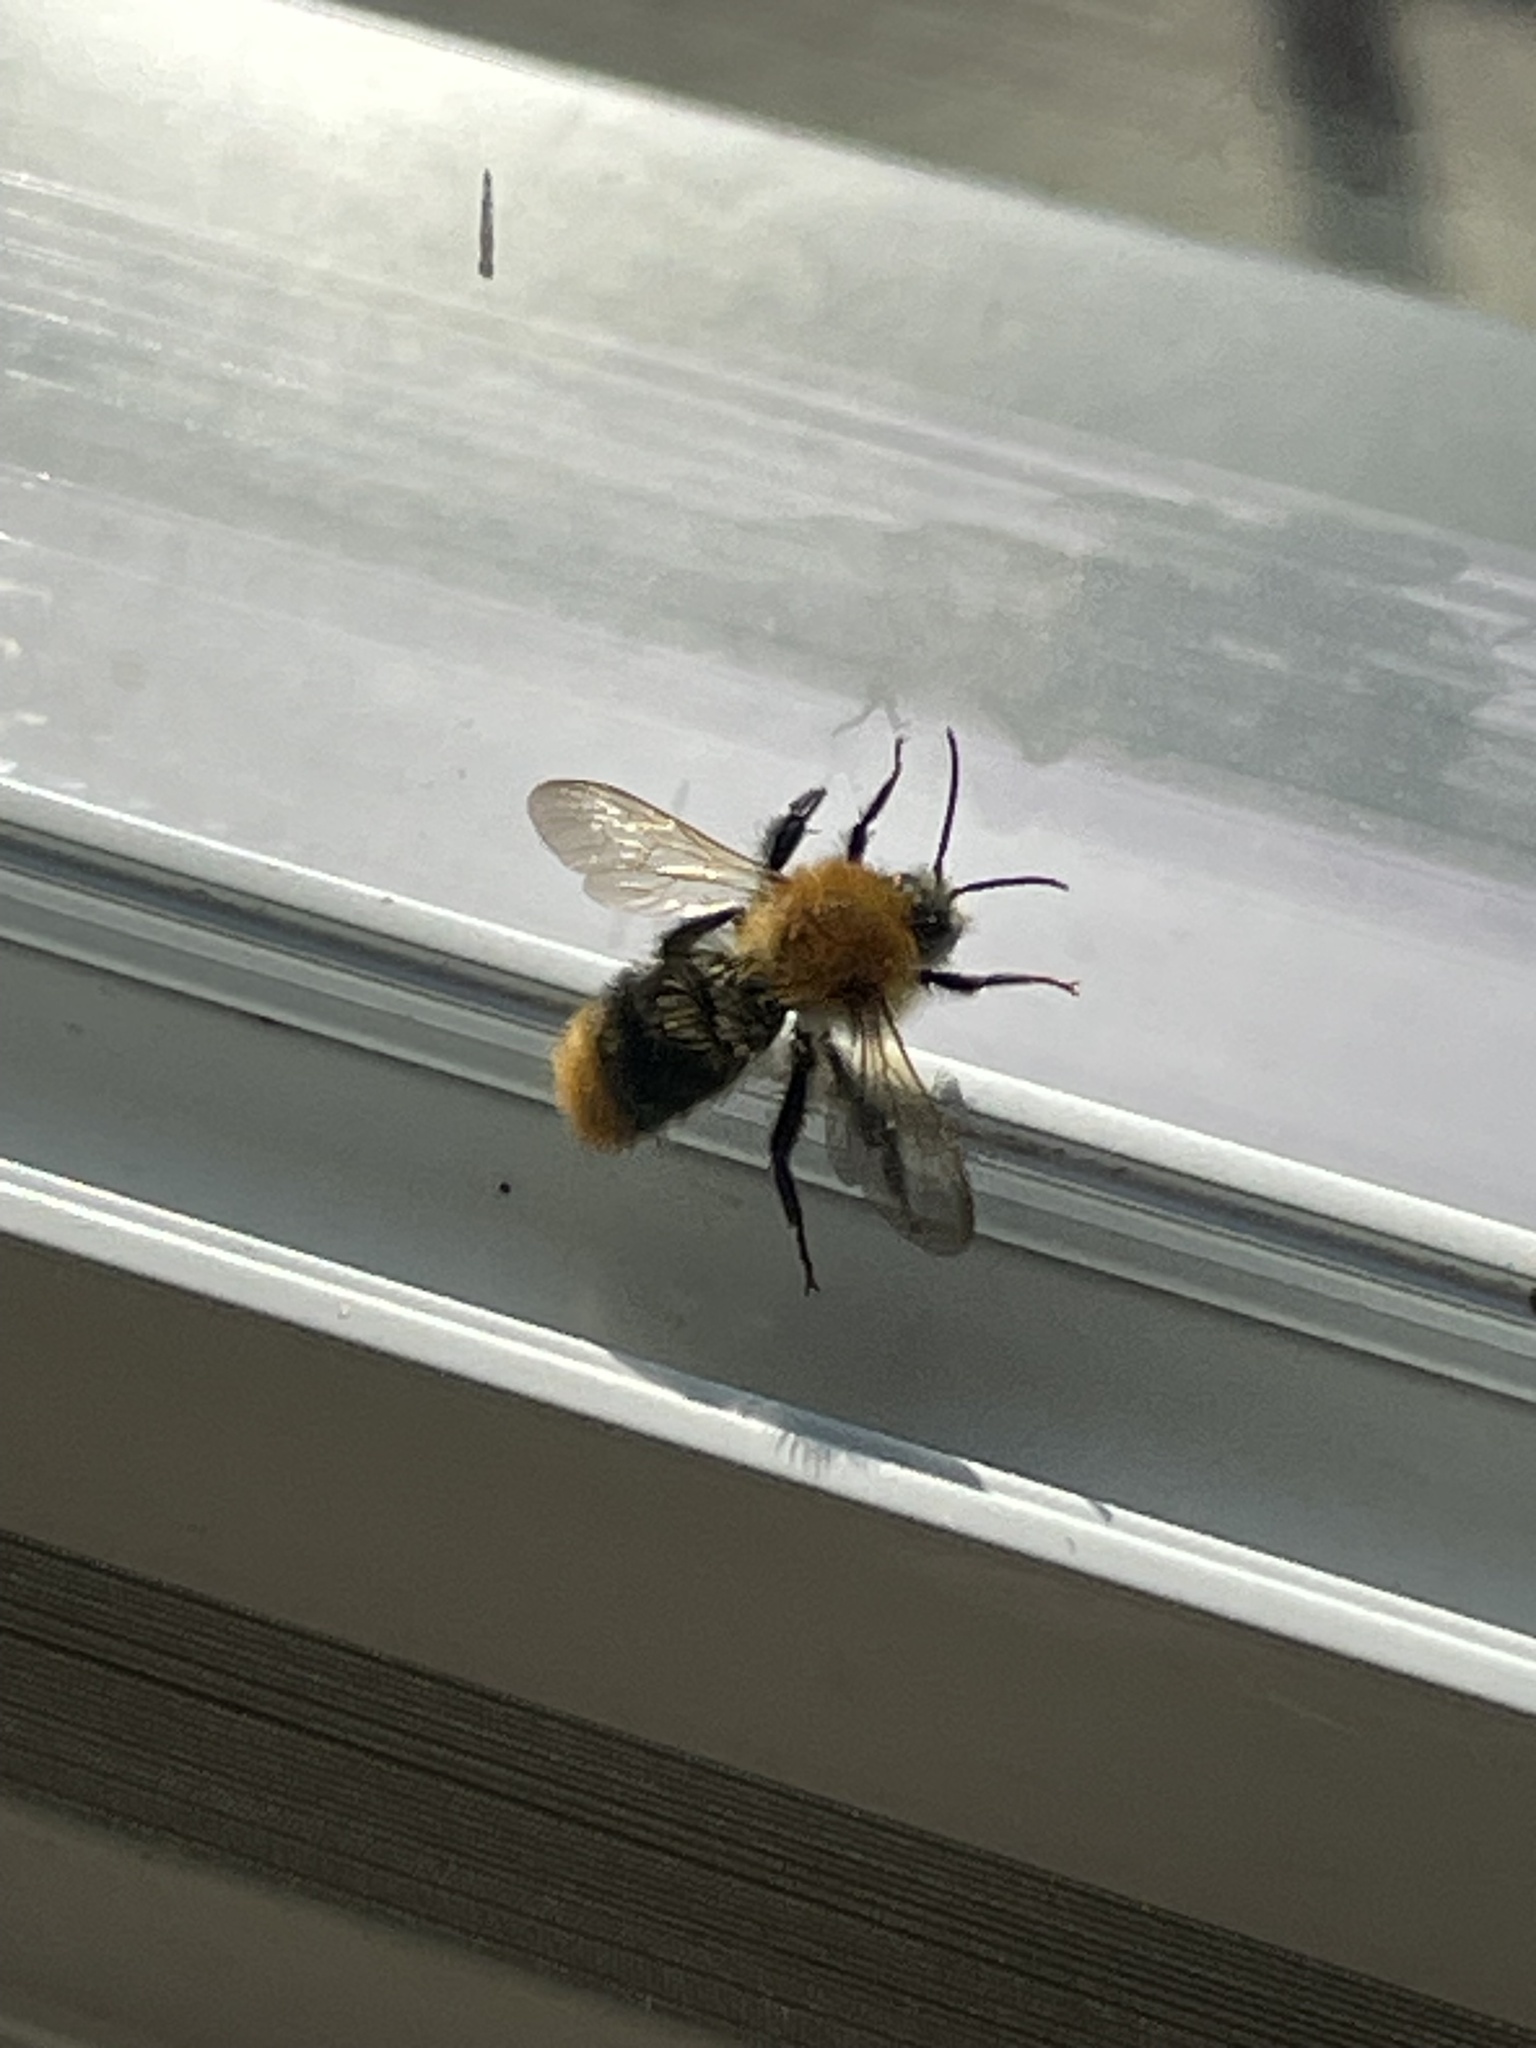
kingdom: Animalia
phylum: Arthropoda
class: Insecta
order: Hymenoptera
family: Apidae
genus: Bombus
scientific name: Bombus pascuorum
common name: Common carder bee
